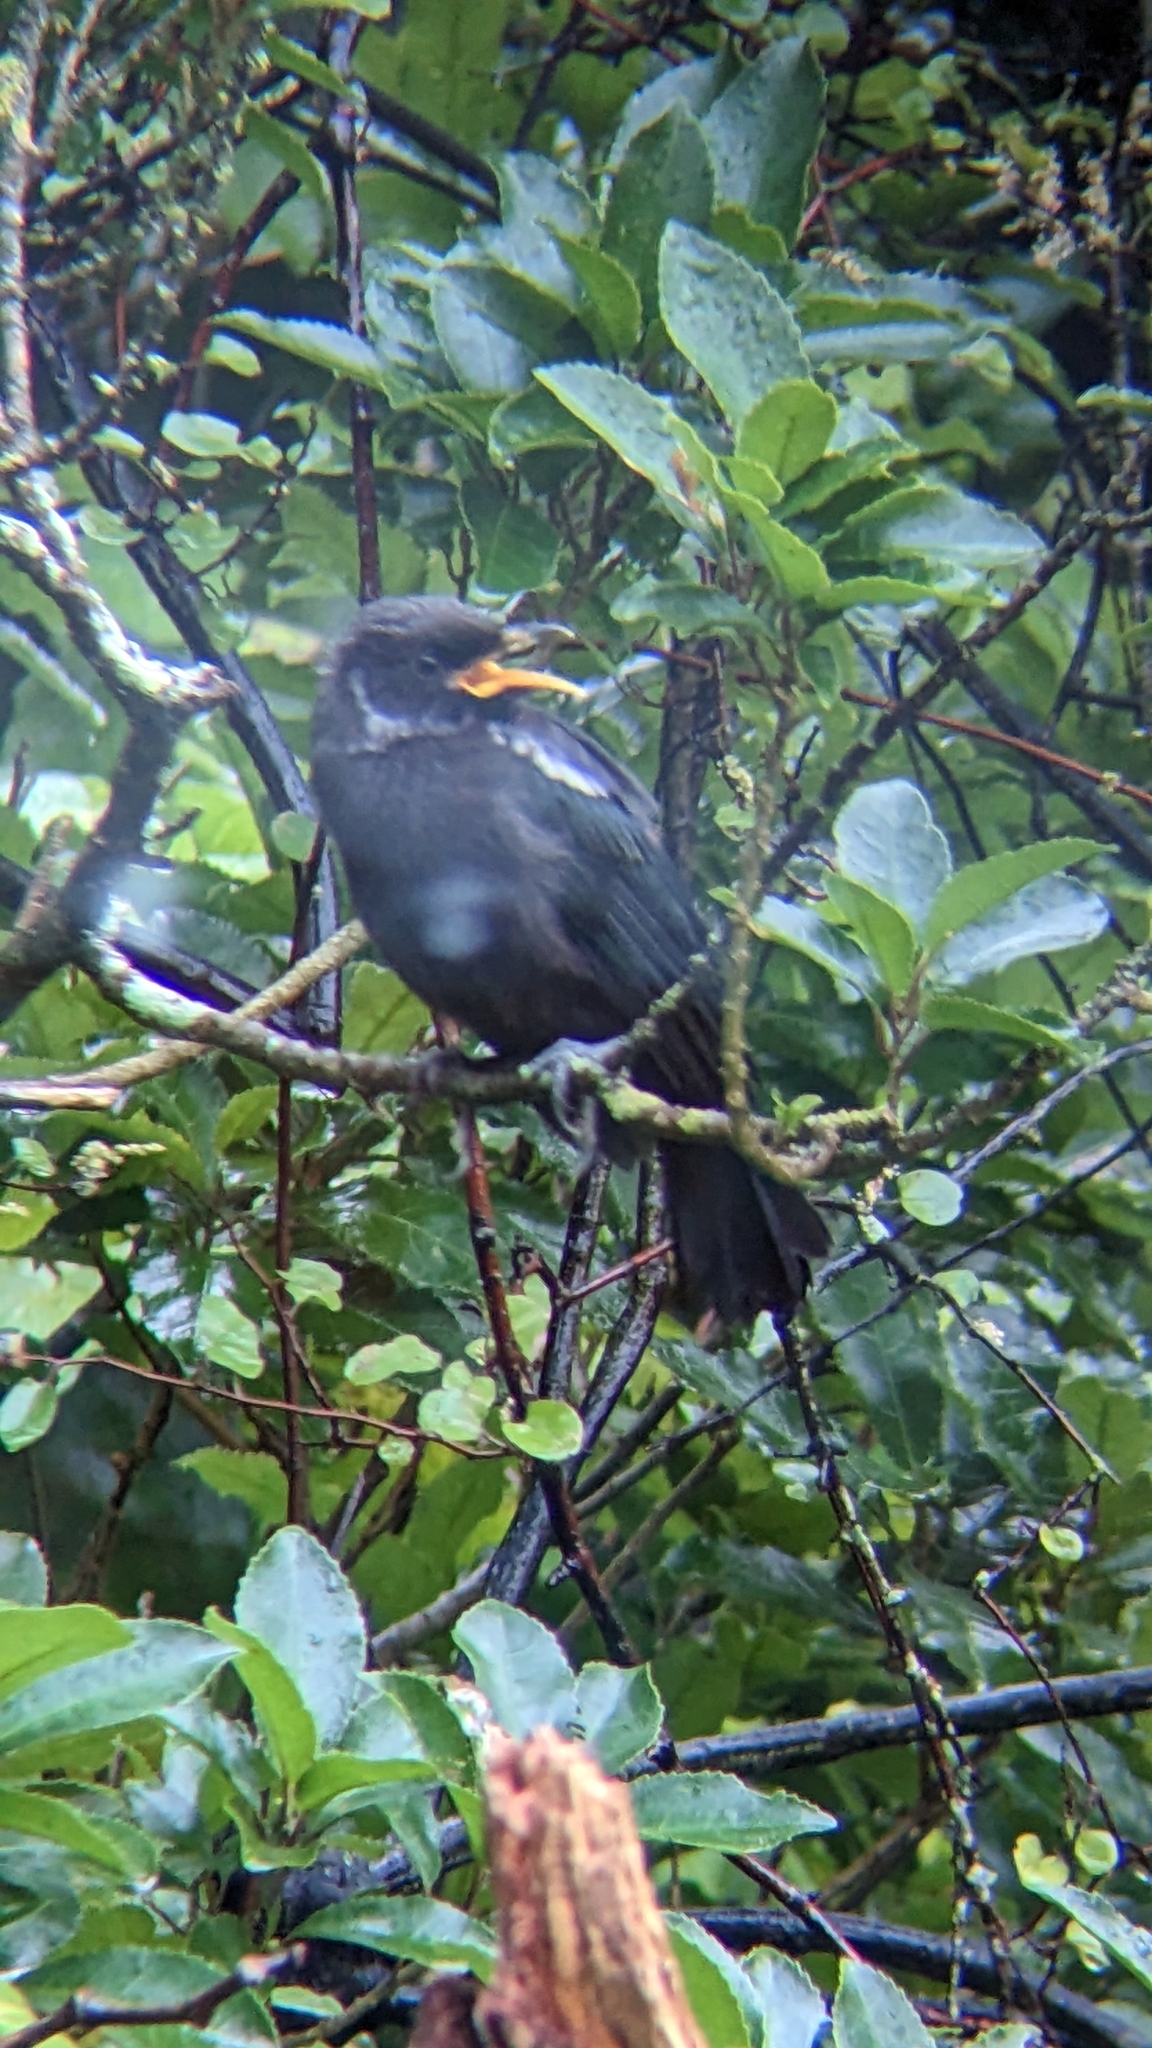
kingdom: Animalia
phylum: Chordata
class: Aves
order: Passeriformes
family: Meliphagidae
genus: Prosthemadera
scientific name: Prosthemadera novaeseelandiae
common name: Tui
